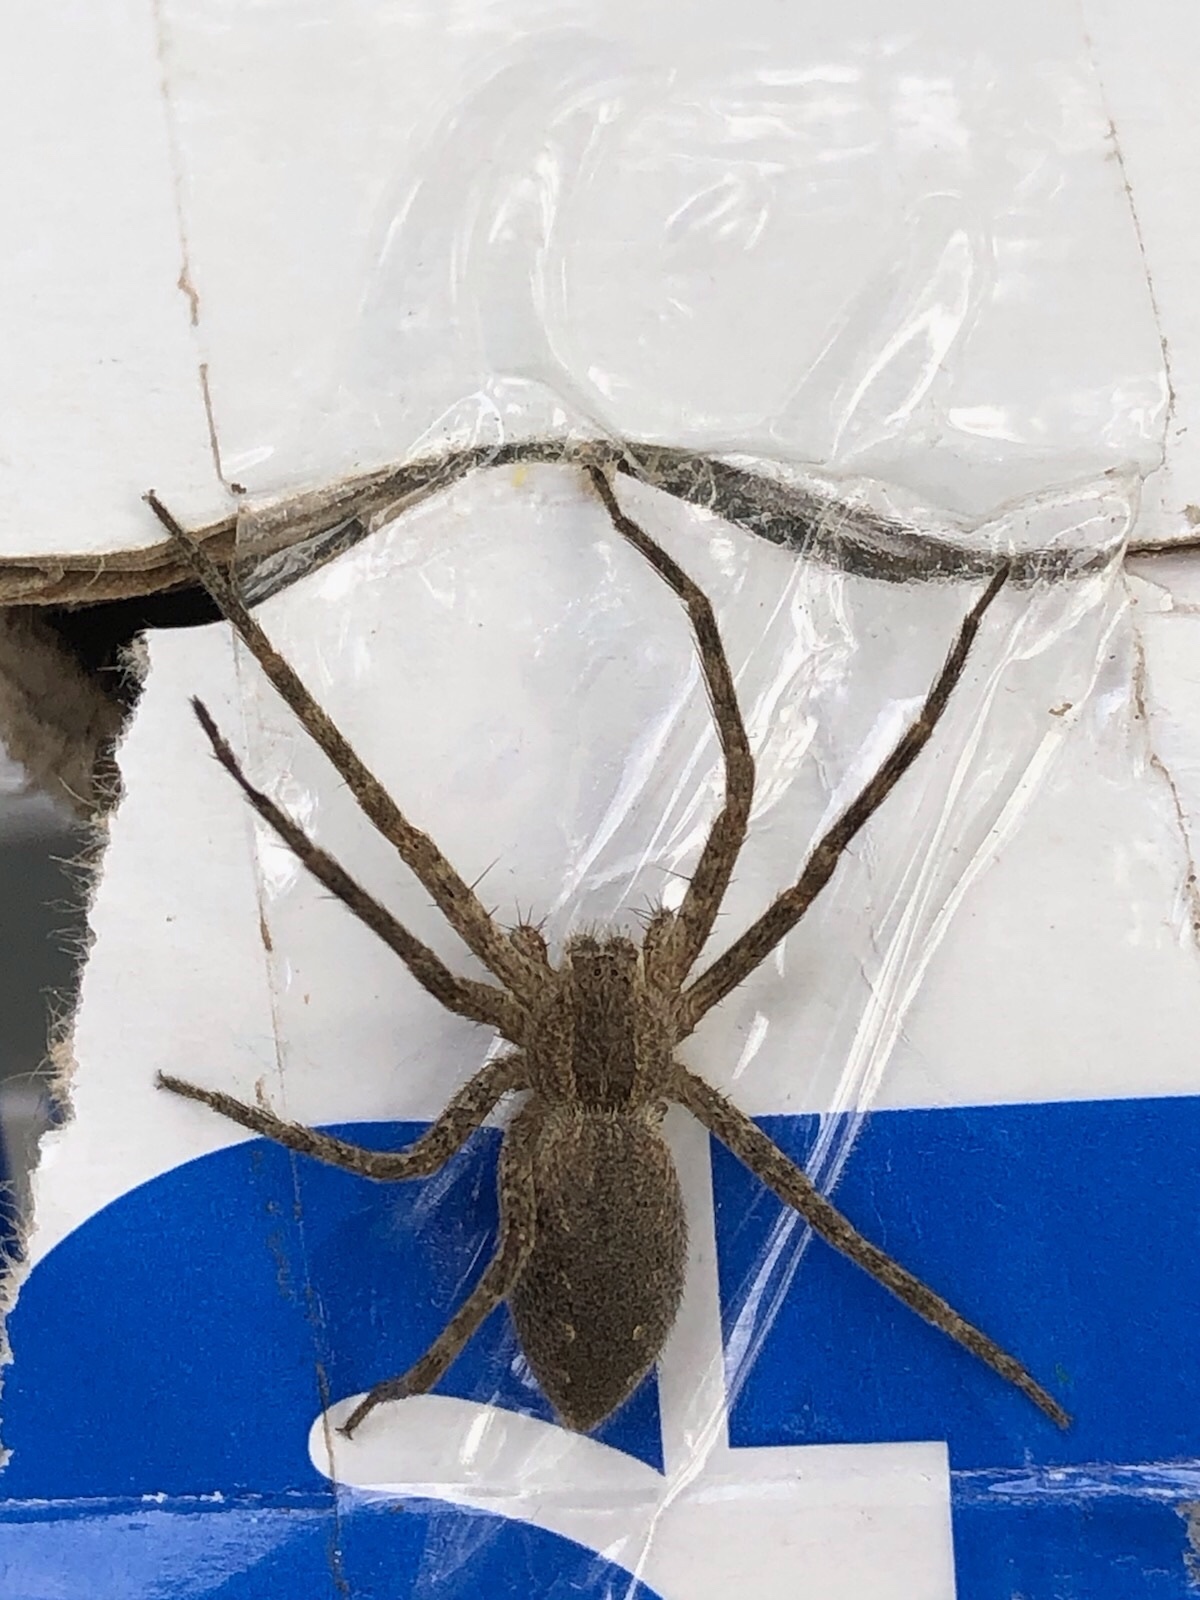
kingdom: Animalia
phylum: Arthropoda
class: Arachnida
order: Araneae
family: Pisauridae
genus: Pisaurina
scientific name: Pisaurina mira
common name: American nursery web spider
